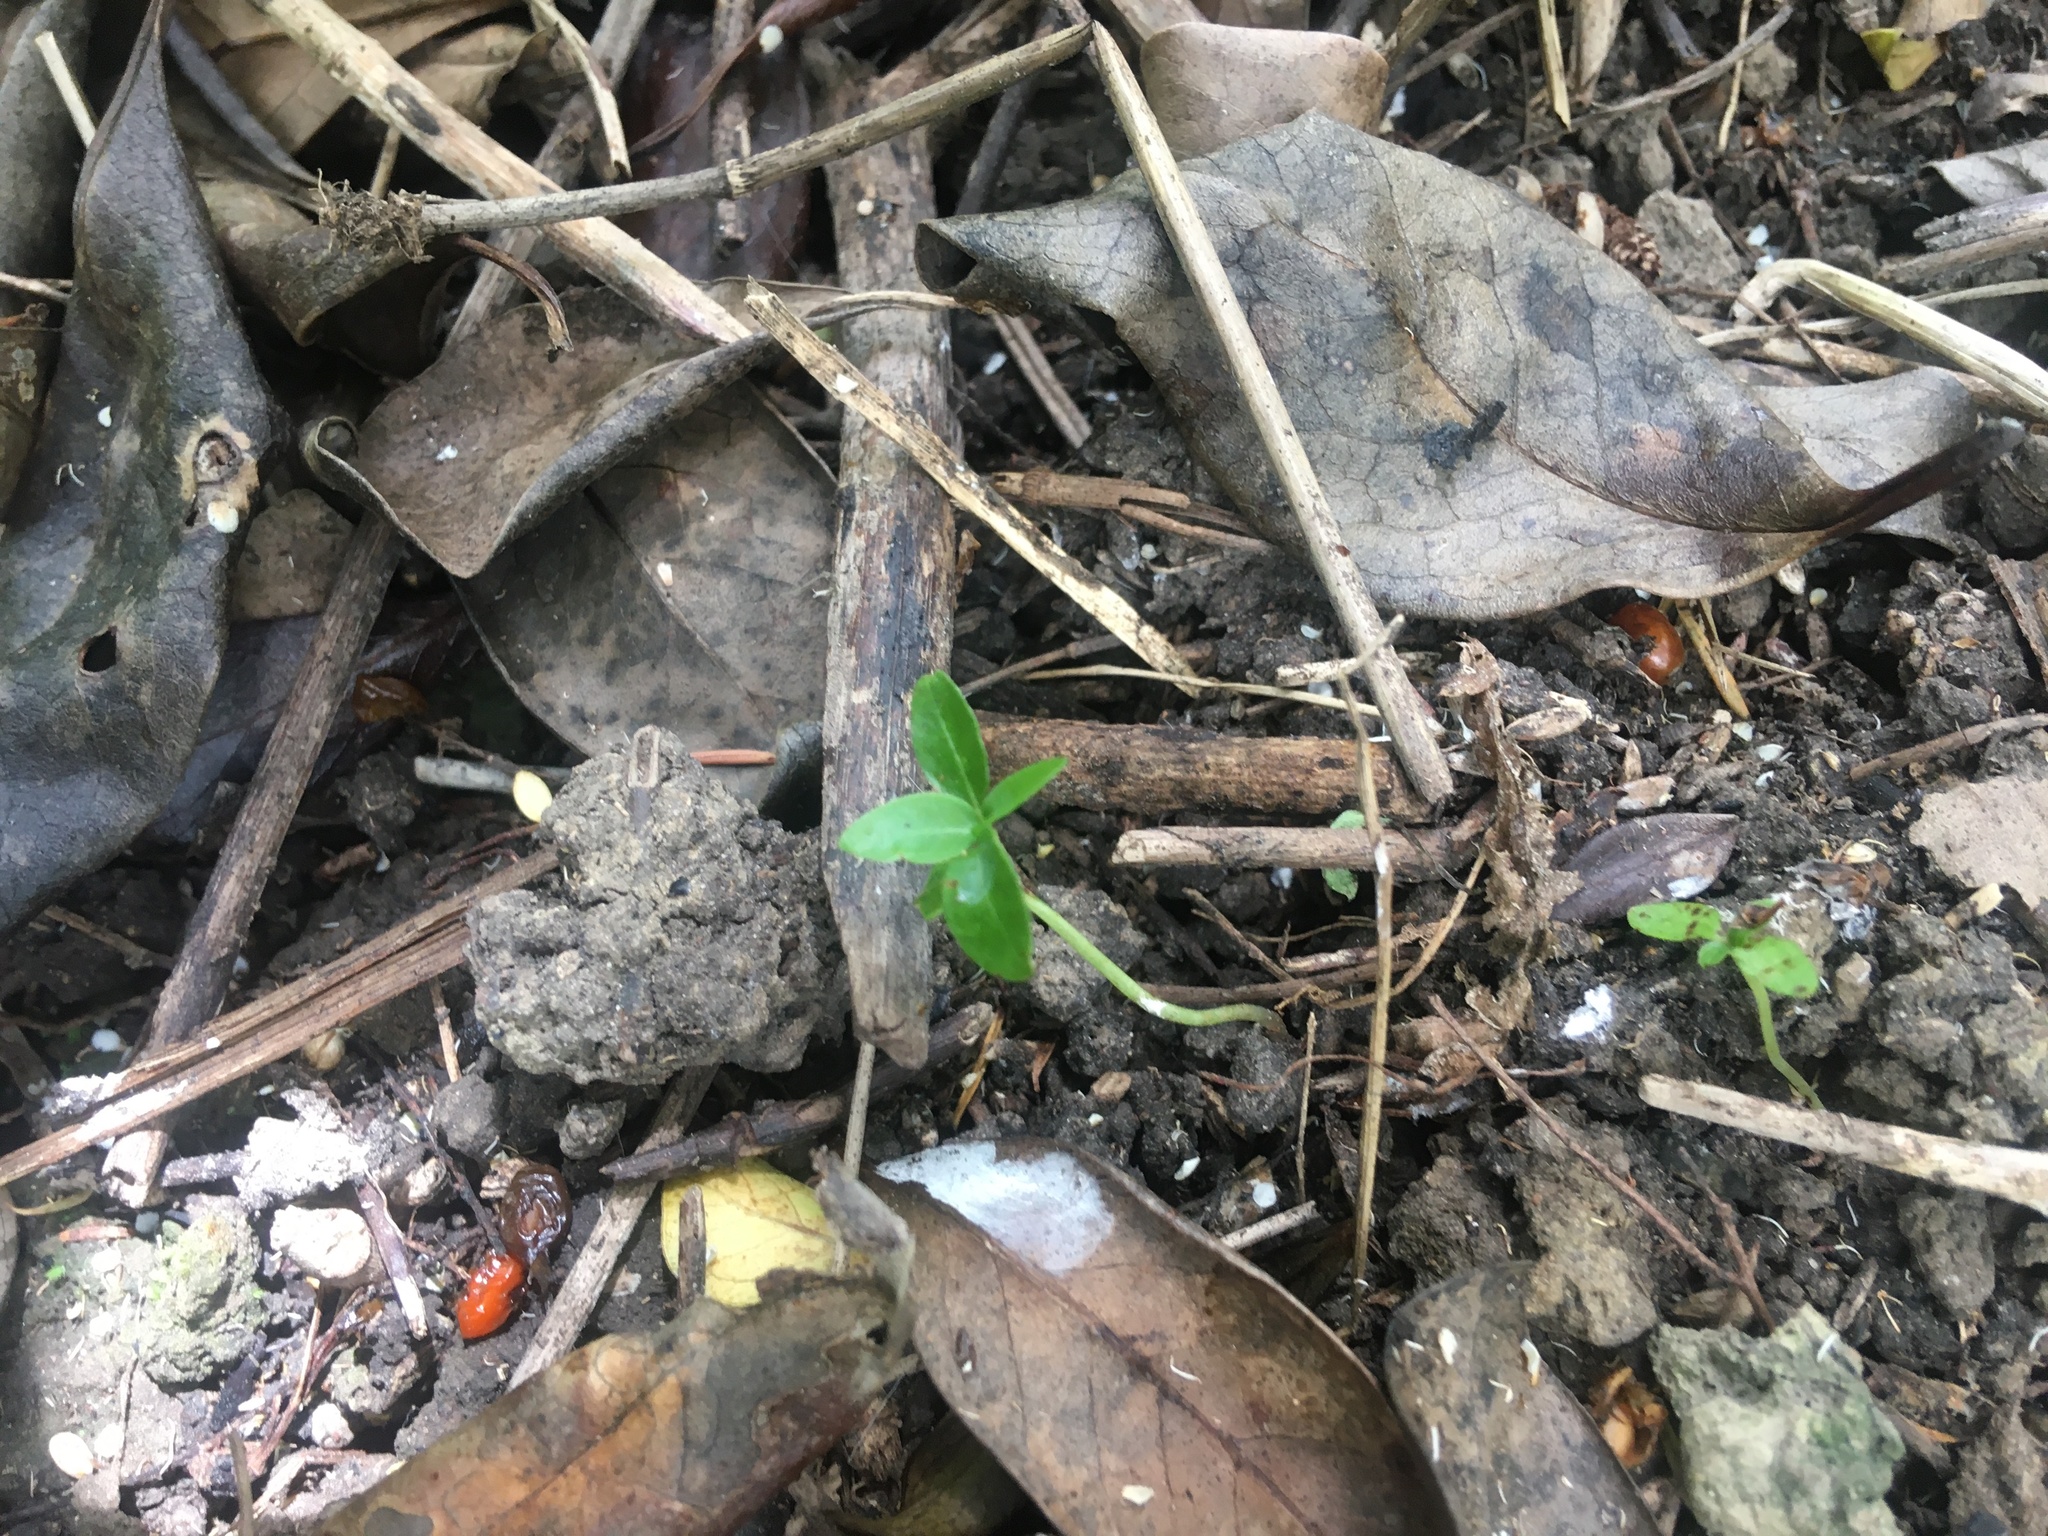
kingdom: Plantae
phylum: Tracheophyta
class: Magnoliopsida
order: Gentianales
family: Rubiaceae
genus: Coprosma
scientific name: Coprosma robusta
